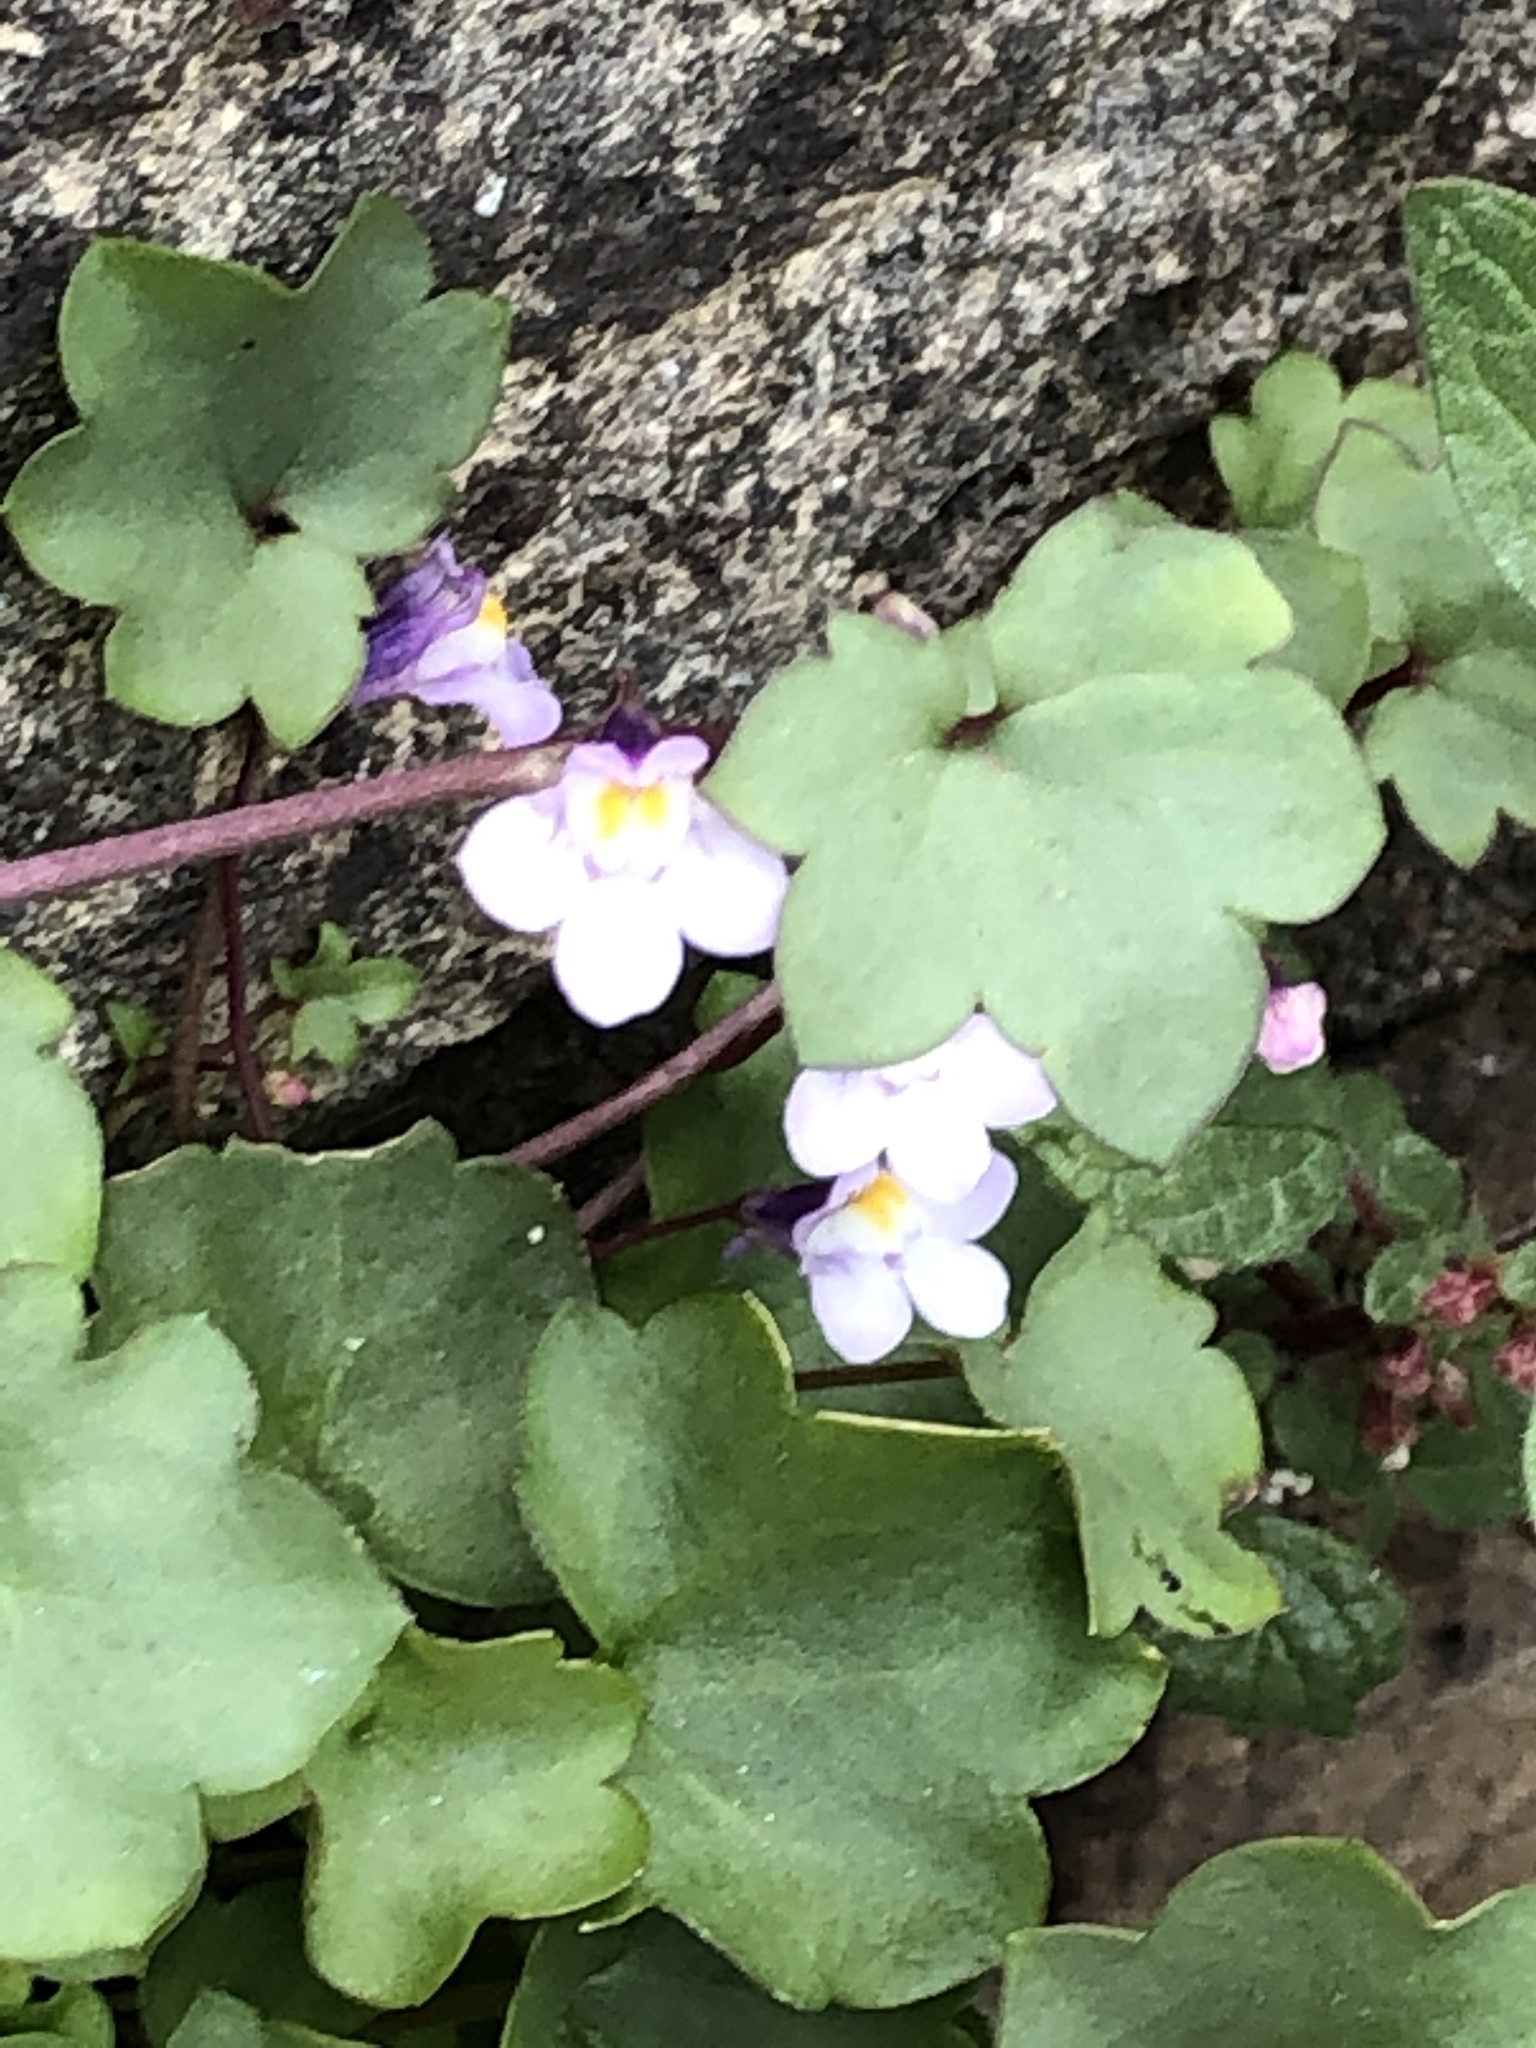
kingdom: Plantae
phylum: Tracheophyta
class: Magnoliopsida
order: Lamiales
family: Plantaginaceae
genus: Cymbalaria
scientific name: Cymbalaria muralis
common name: Ivy-leaved toadflax
